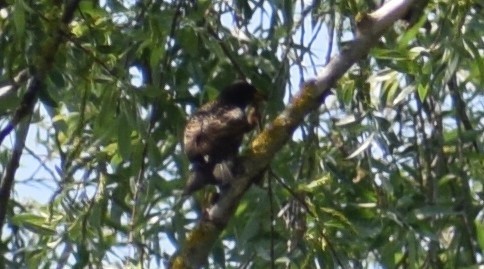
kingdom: Animalia
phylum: Chordata
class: Aves
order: Passeriformes
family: Sturnidae
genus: Sturnus
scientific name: Sturnus vulgaris
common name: Common starling
